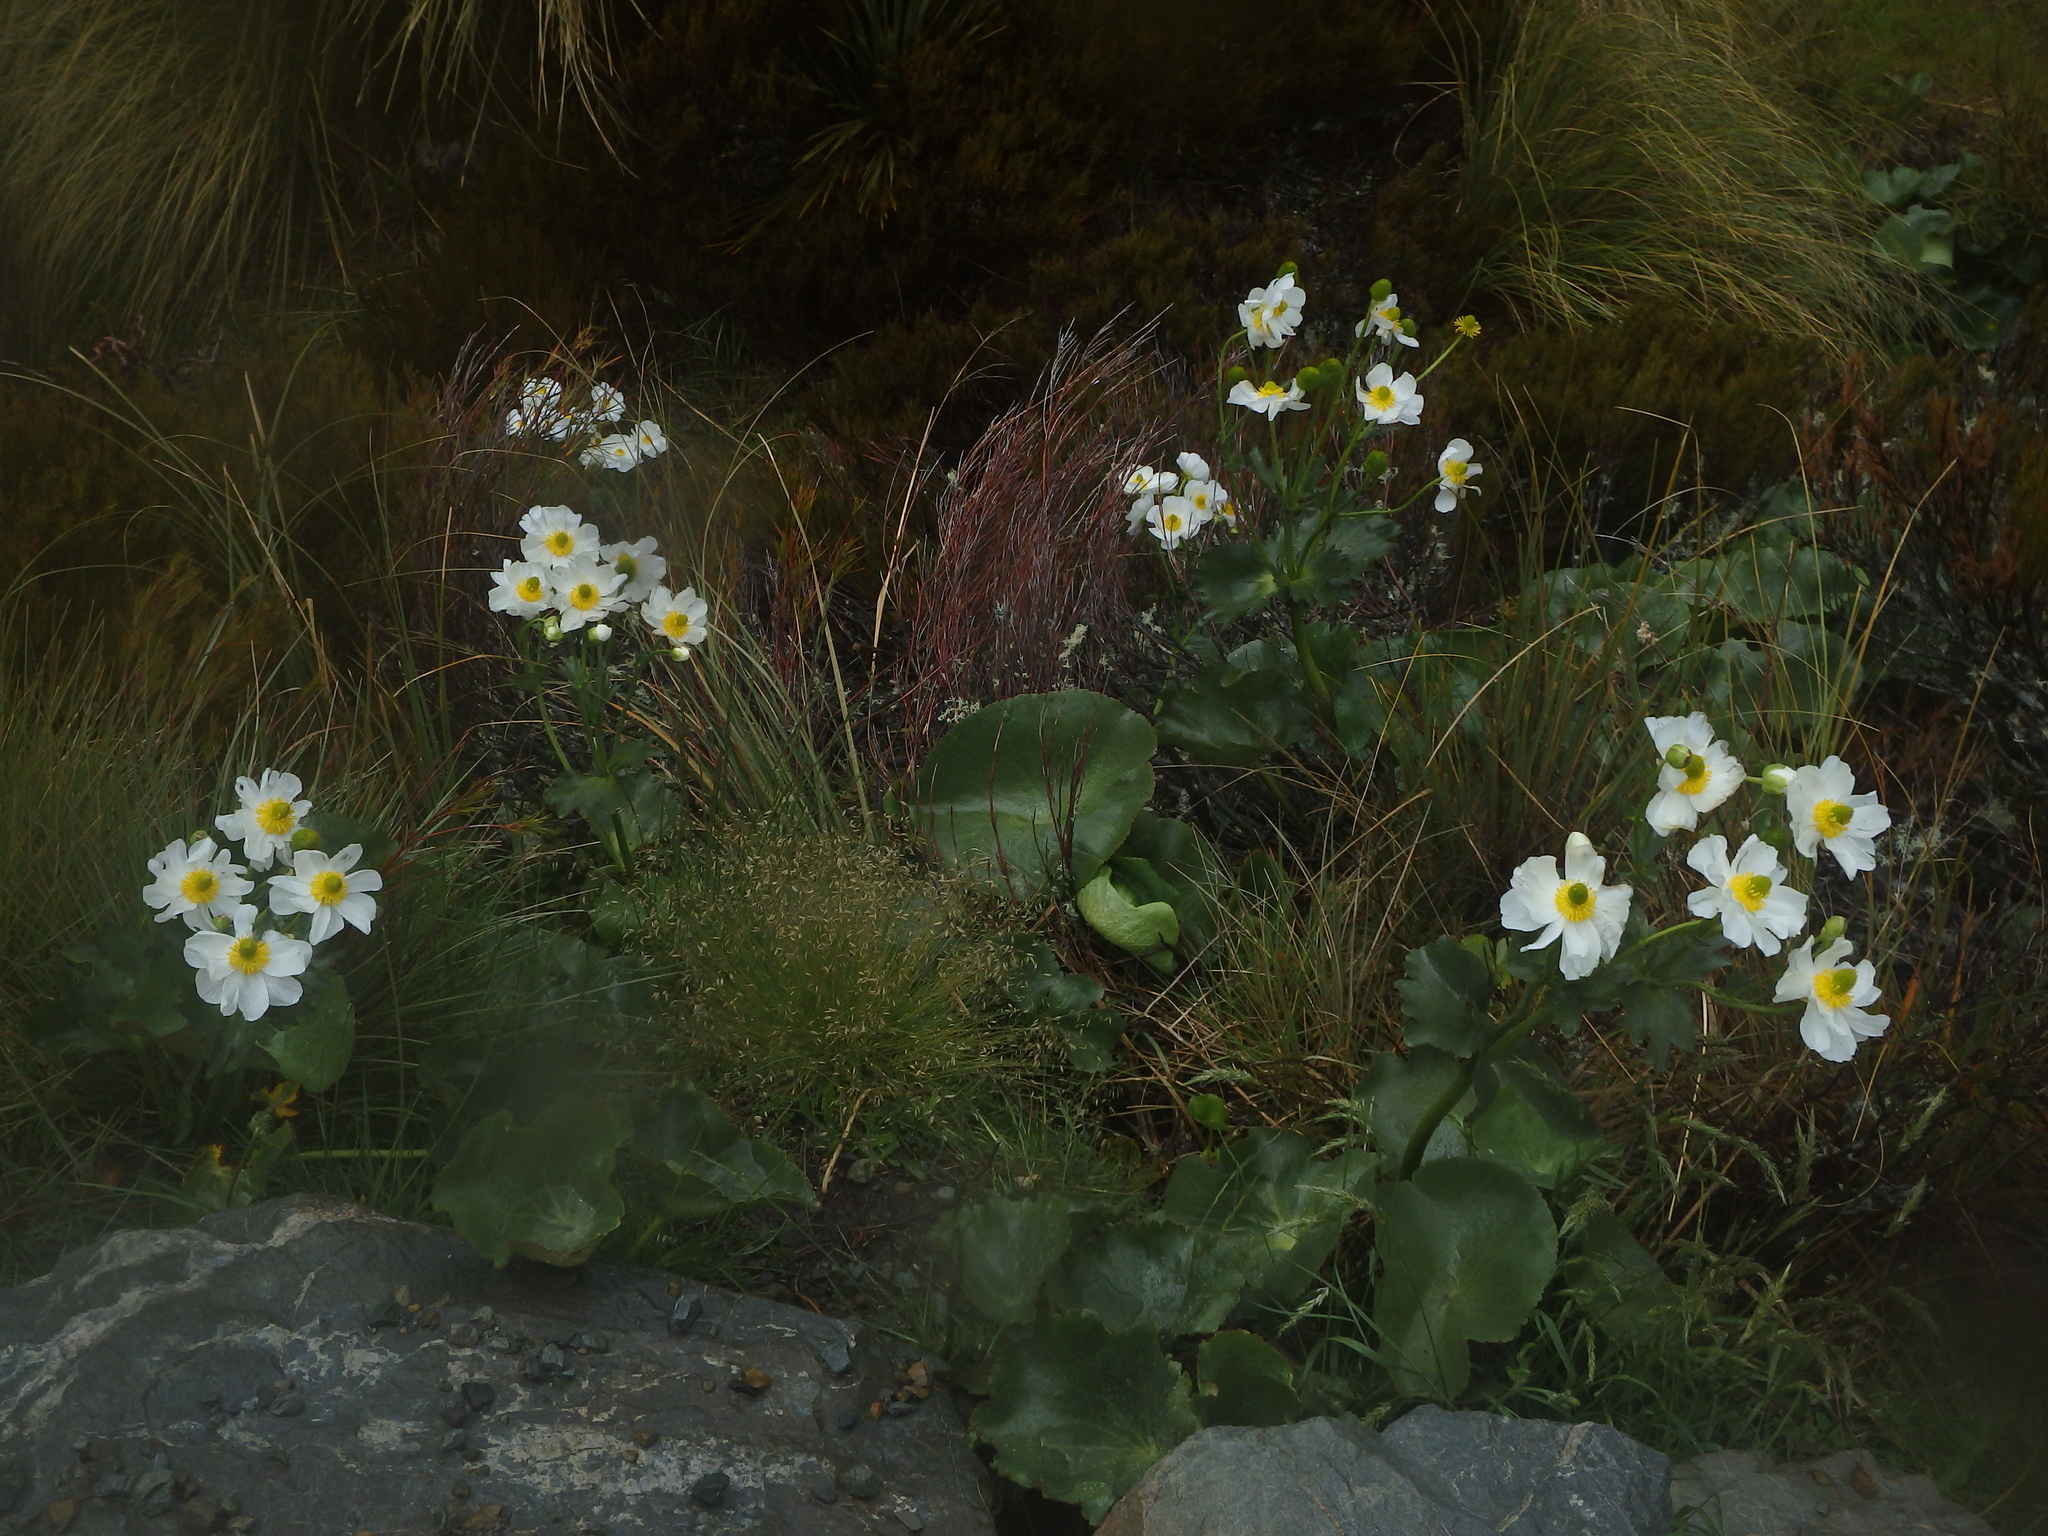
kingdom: Plantae
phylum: Tracheophyta
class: Magnoliopsida
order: Ranunculales
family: Ranunculaceae
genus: Ranunculus
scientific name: Ranunculus lyallii
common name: Mountain-lily
